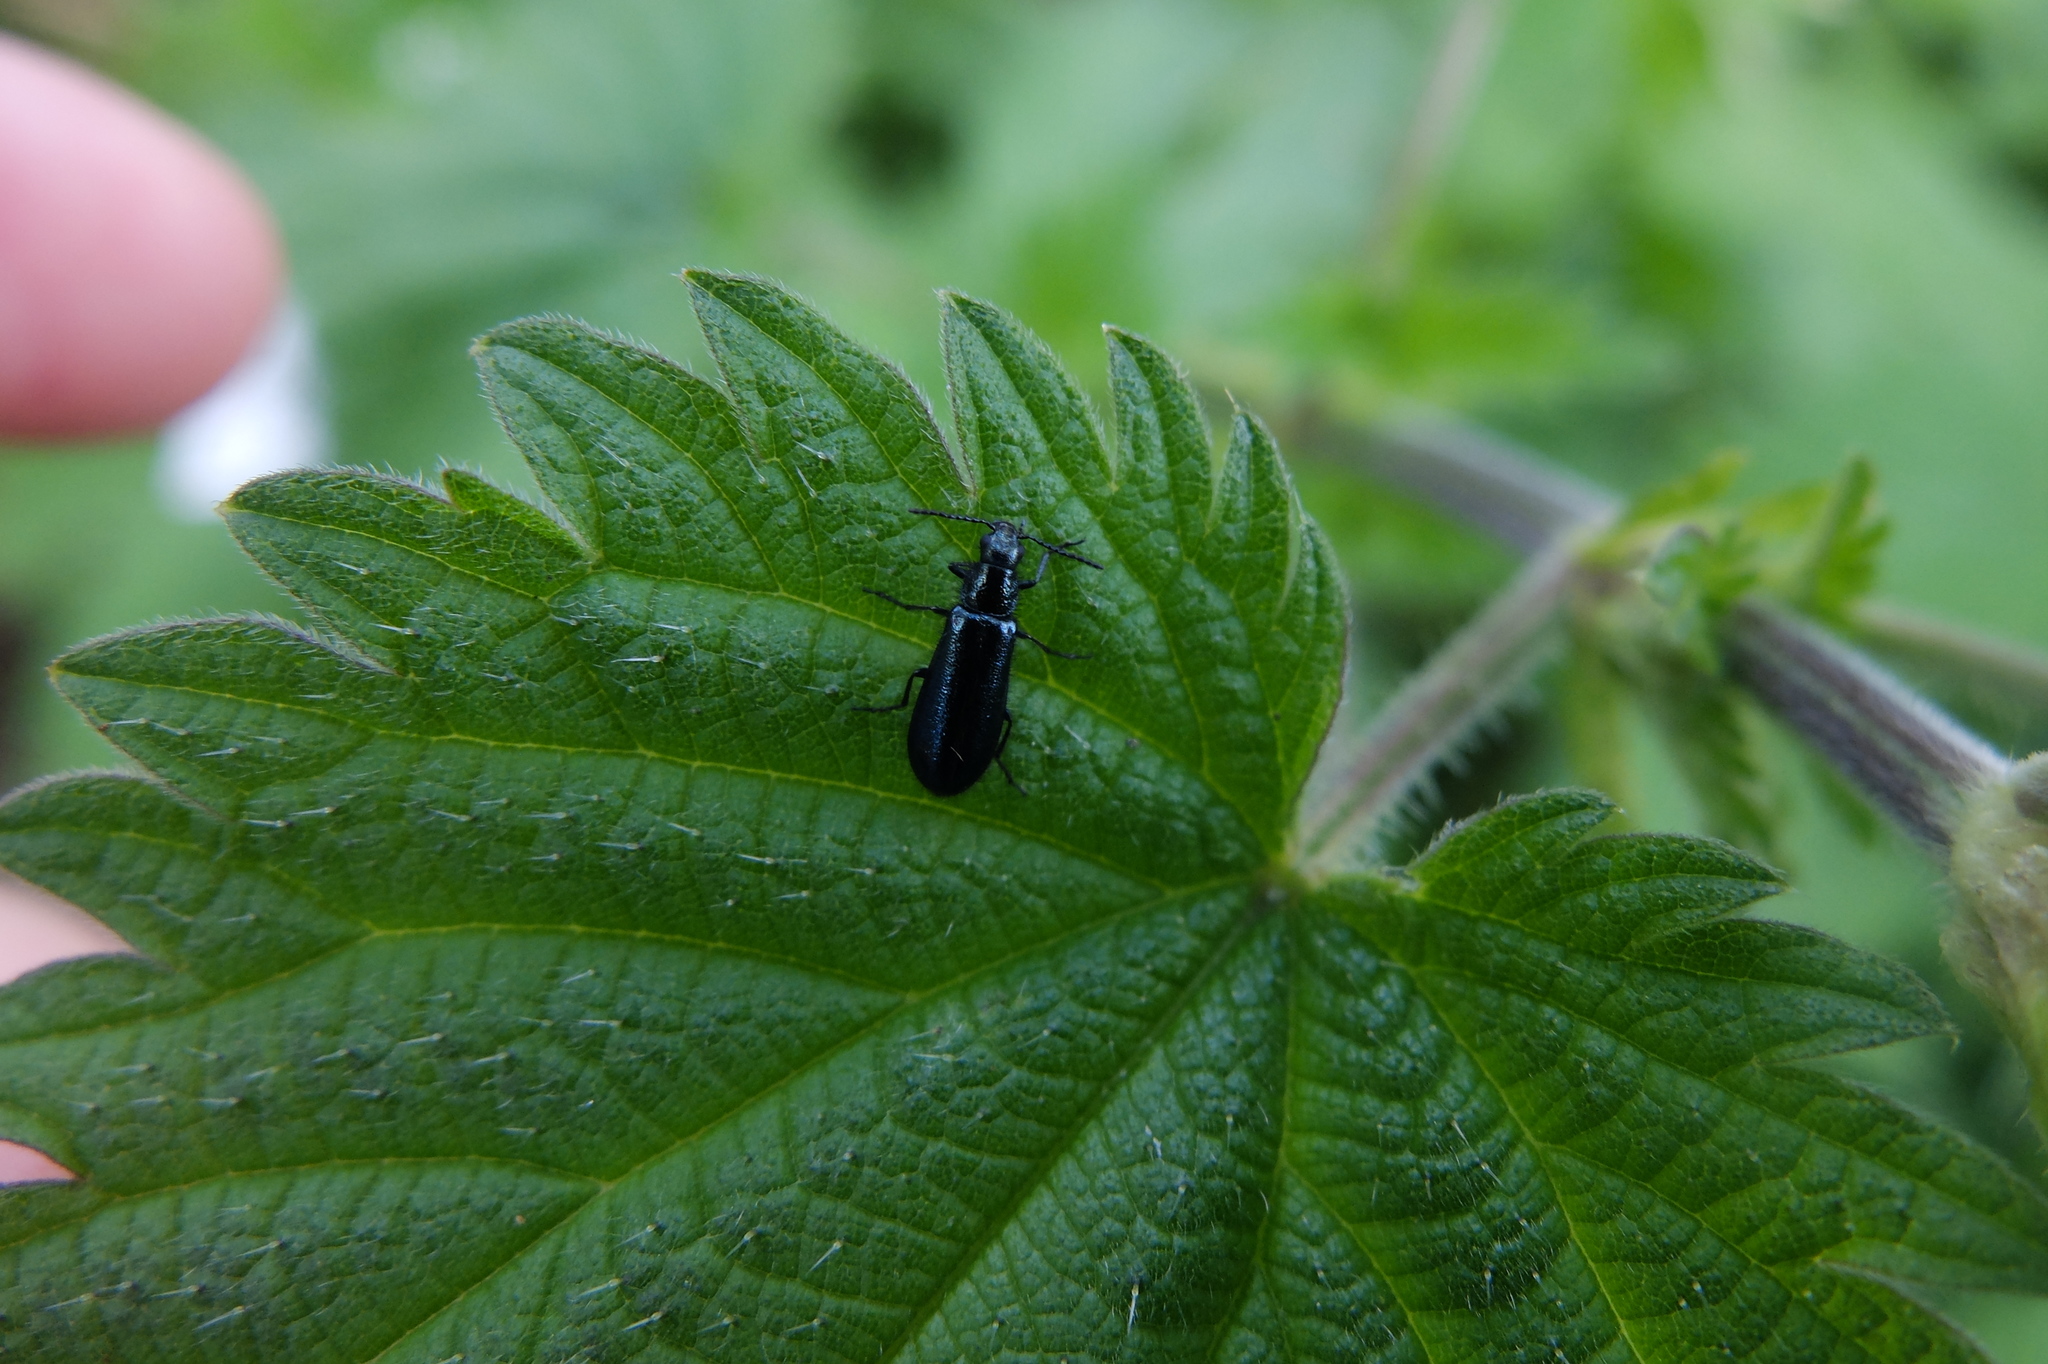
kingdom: Animalia
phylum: Arthropoda
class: Insecta
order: Coleoptera
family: Melyridae
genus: Dasytes
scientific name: Dasytes caeruleus
